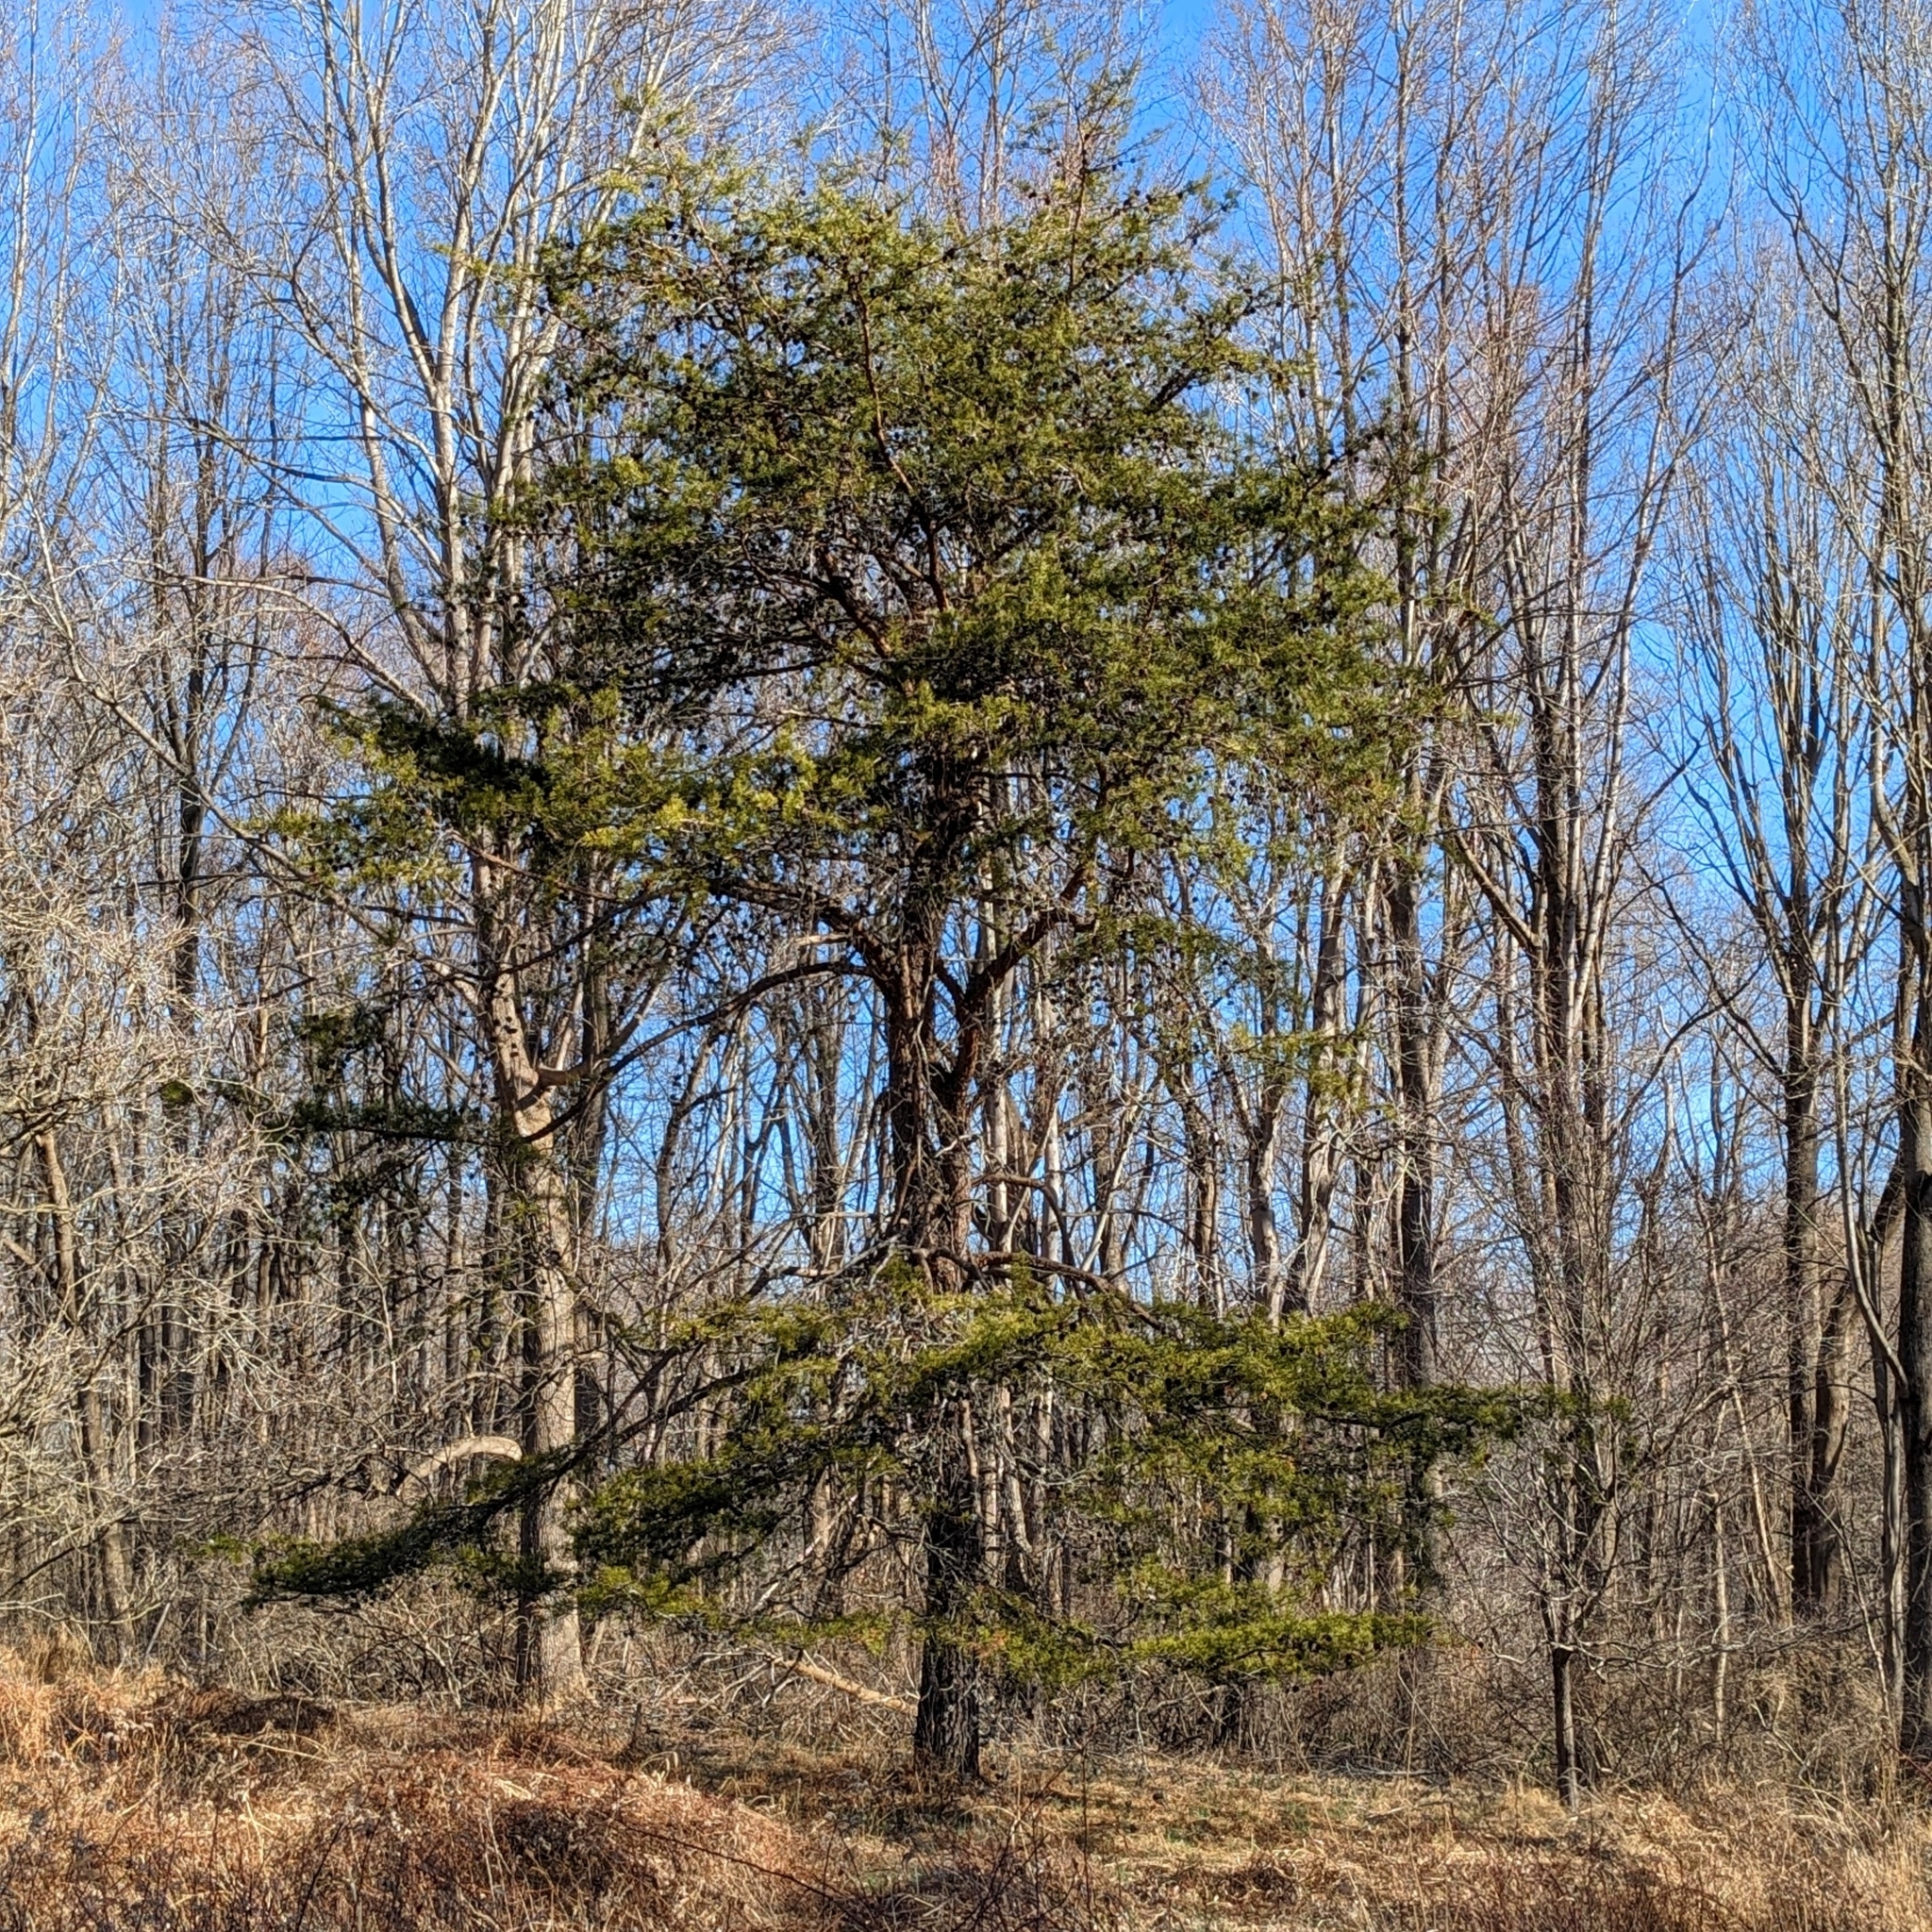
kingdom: Plantae
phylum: Tracheophyta
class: Pinopsida
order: Pinales
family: Pinaceae
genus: Pinus
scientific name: Pinus virginiana
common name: Scrub pine
